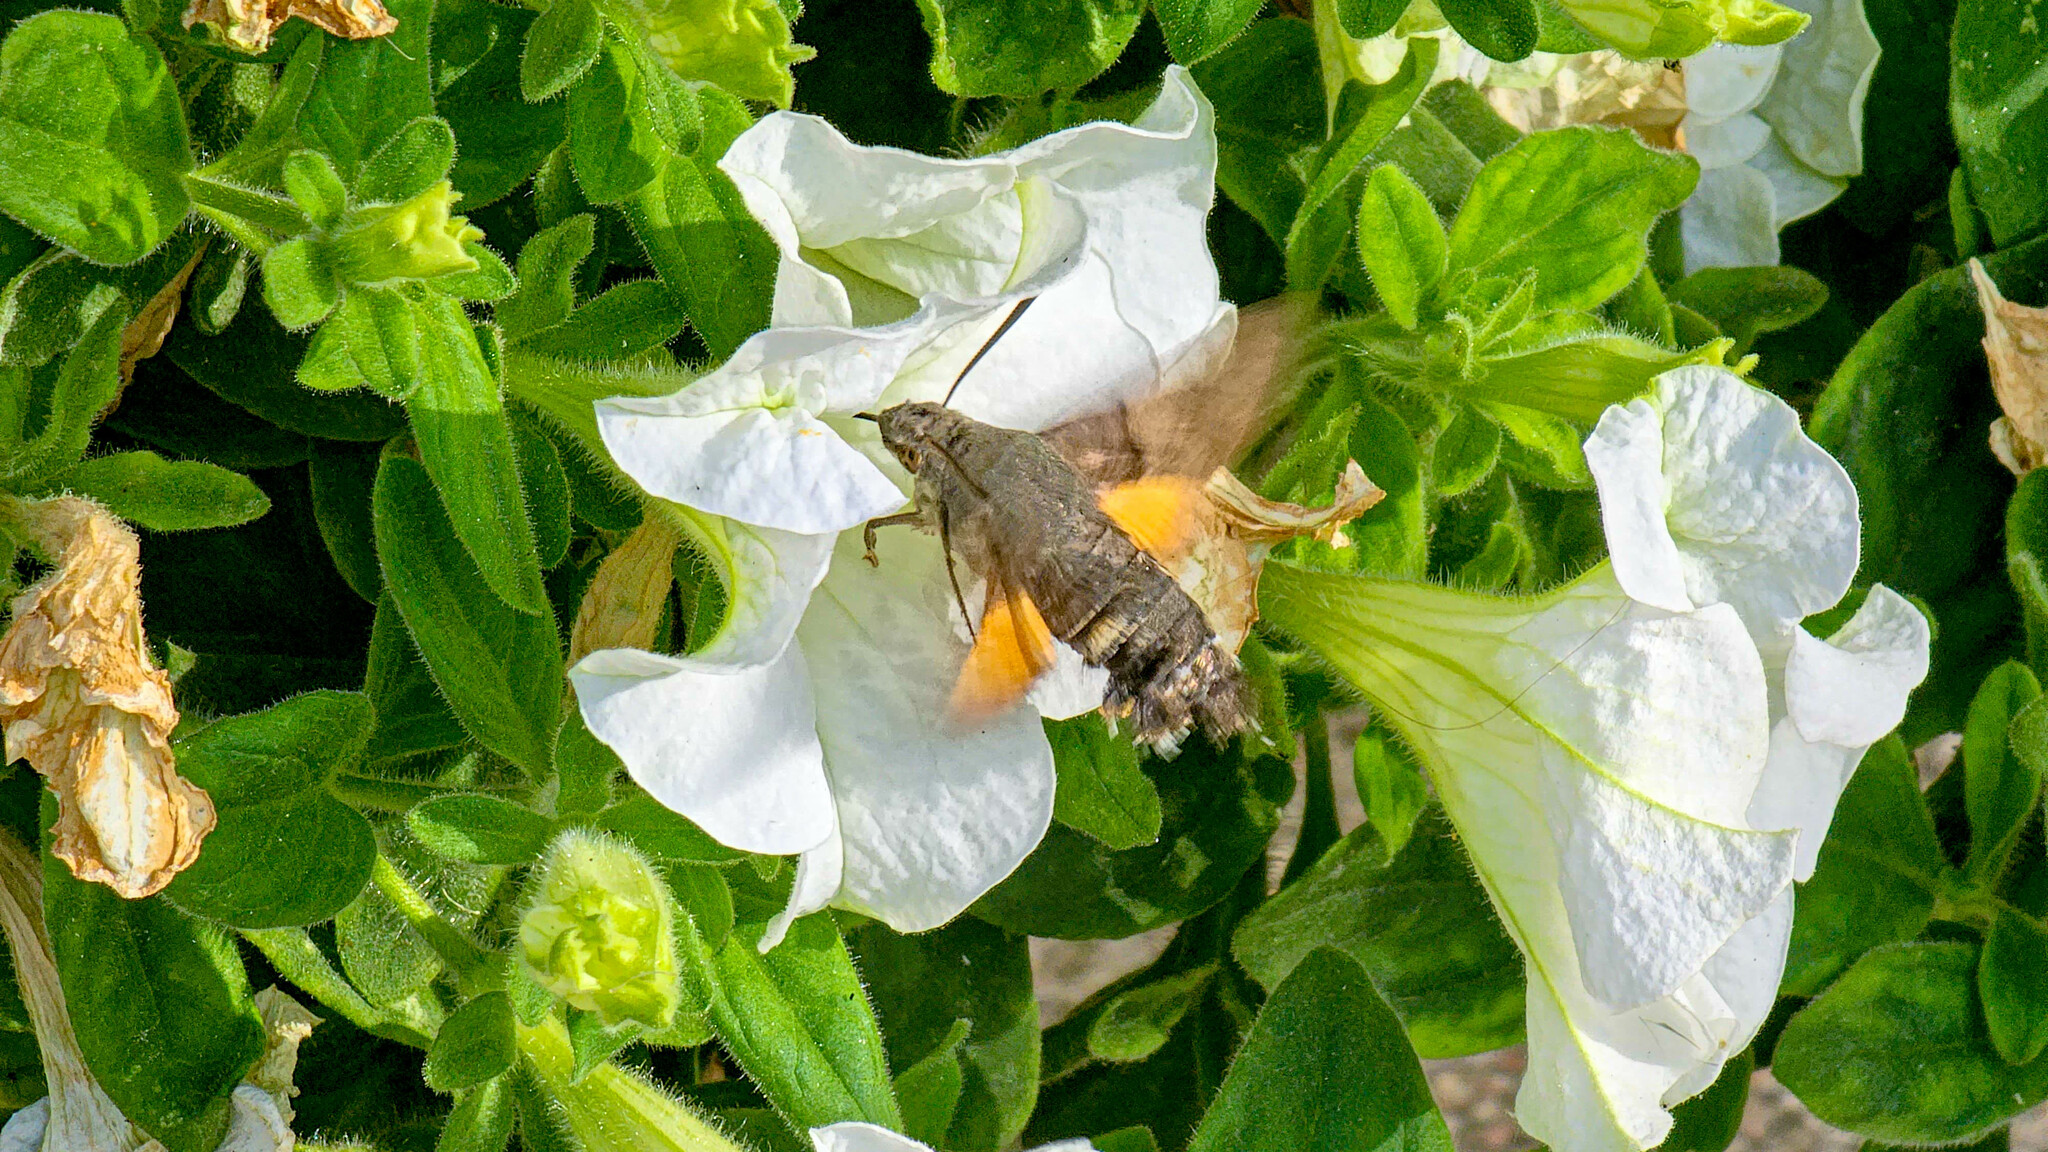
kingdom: Animalia
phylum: Arthropoda
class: Insecta
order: Lepidoptera
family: Sphingidae
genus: Macroglossum
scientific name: Macroglossum stellatarum
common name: Humming-bird hawk-moth
